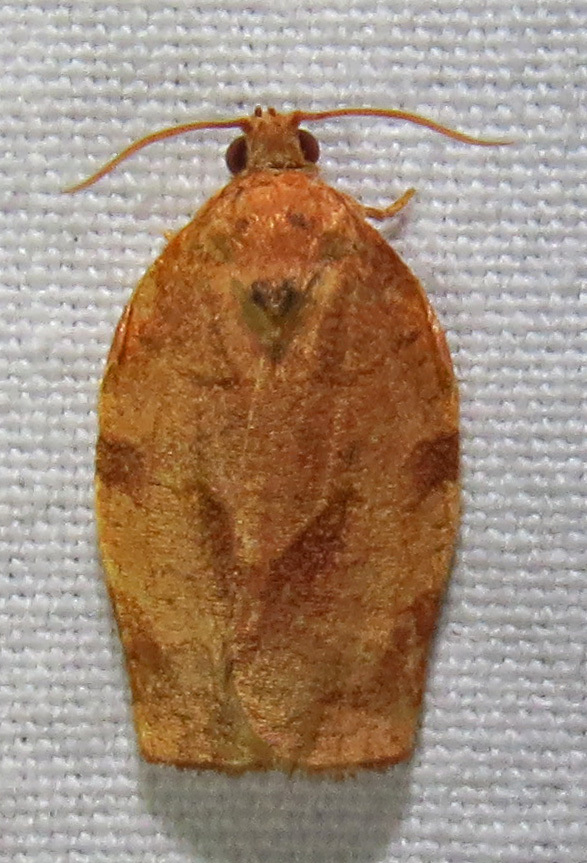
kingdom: Animalia
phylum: Arthropoda
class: Insecta
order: Lepidoptera
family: Tortricidae
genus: Choristoneura
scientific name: Choristoneura rosaceana
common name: Oblique-banded leafroller moth
